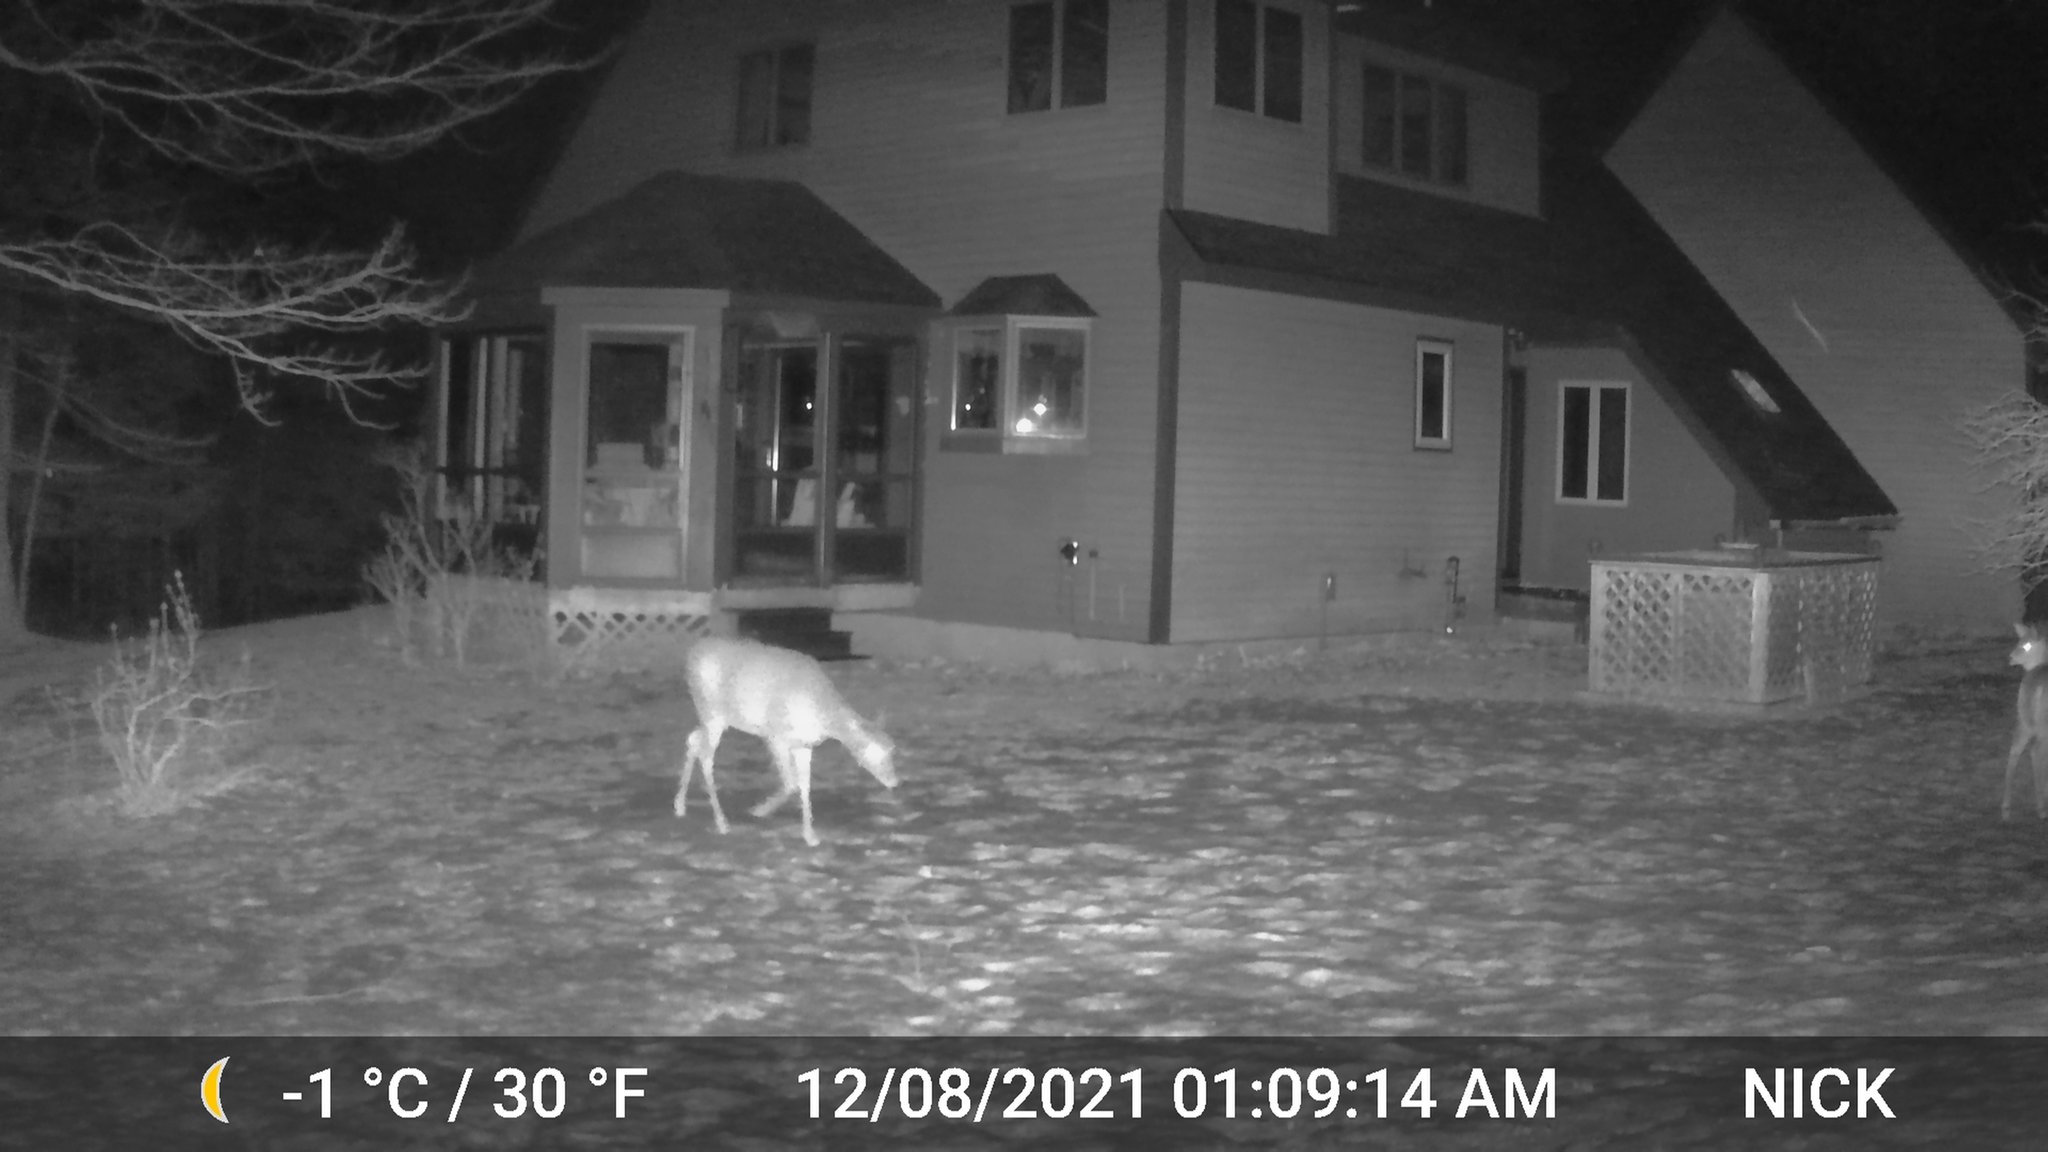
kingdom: Animalia
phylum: Chordata
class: Mammalia
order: Artiodactyla
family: Cervidae
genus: Odocoileus
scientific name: Odocoileus virginianus
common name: White-tailed deer
